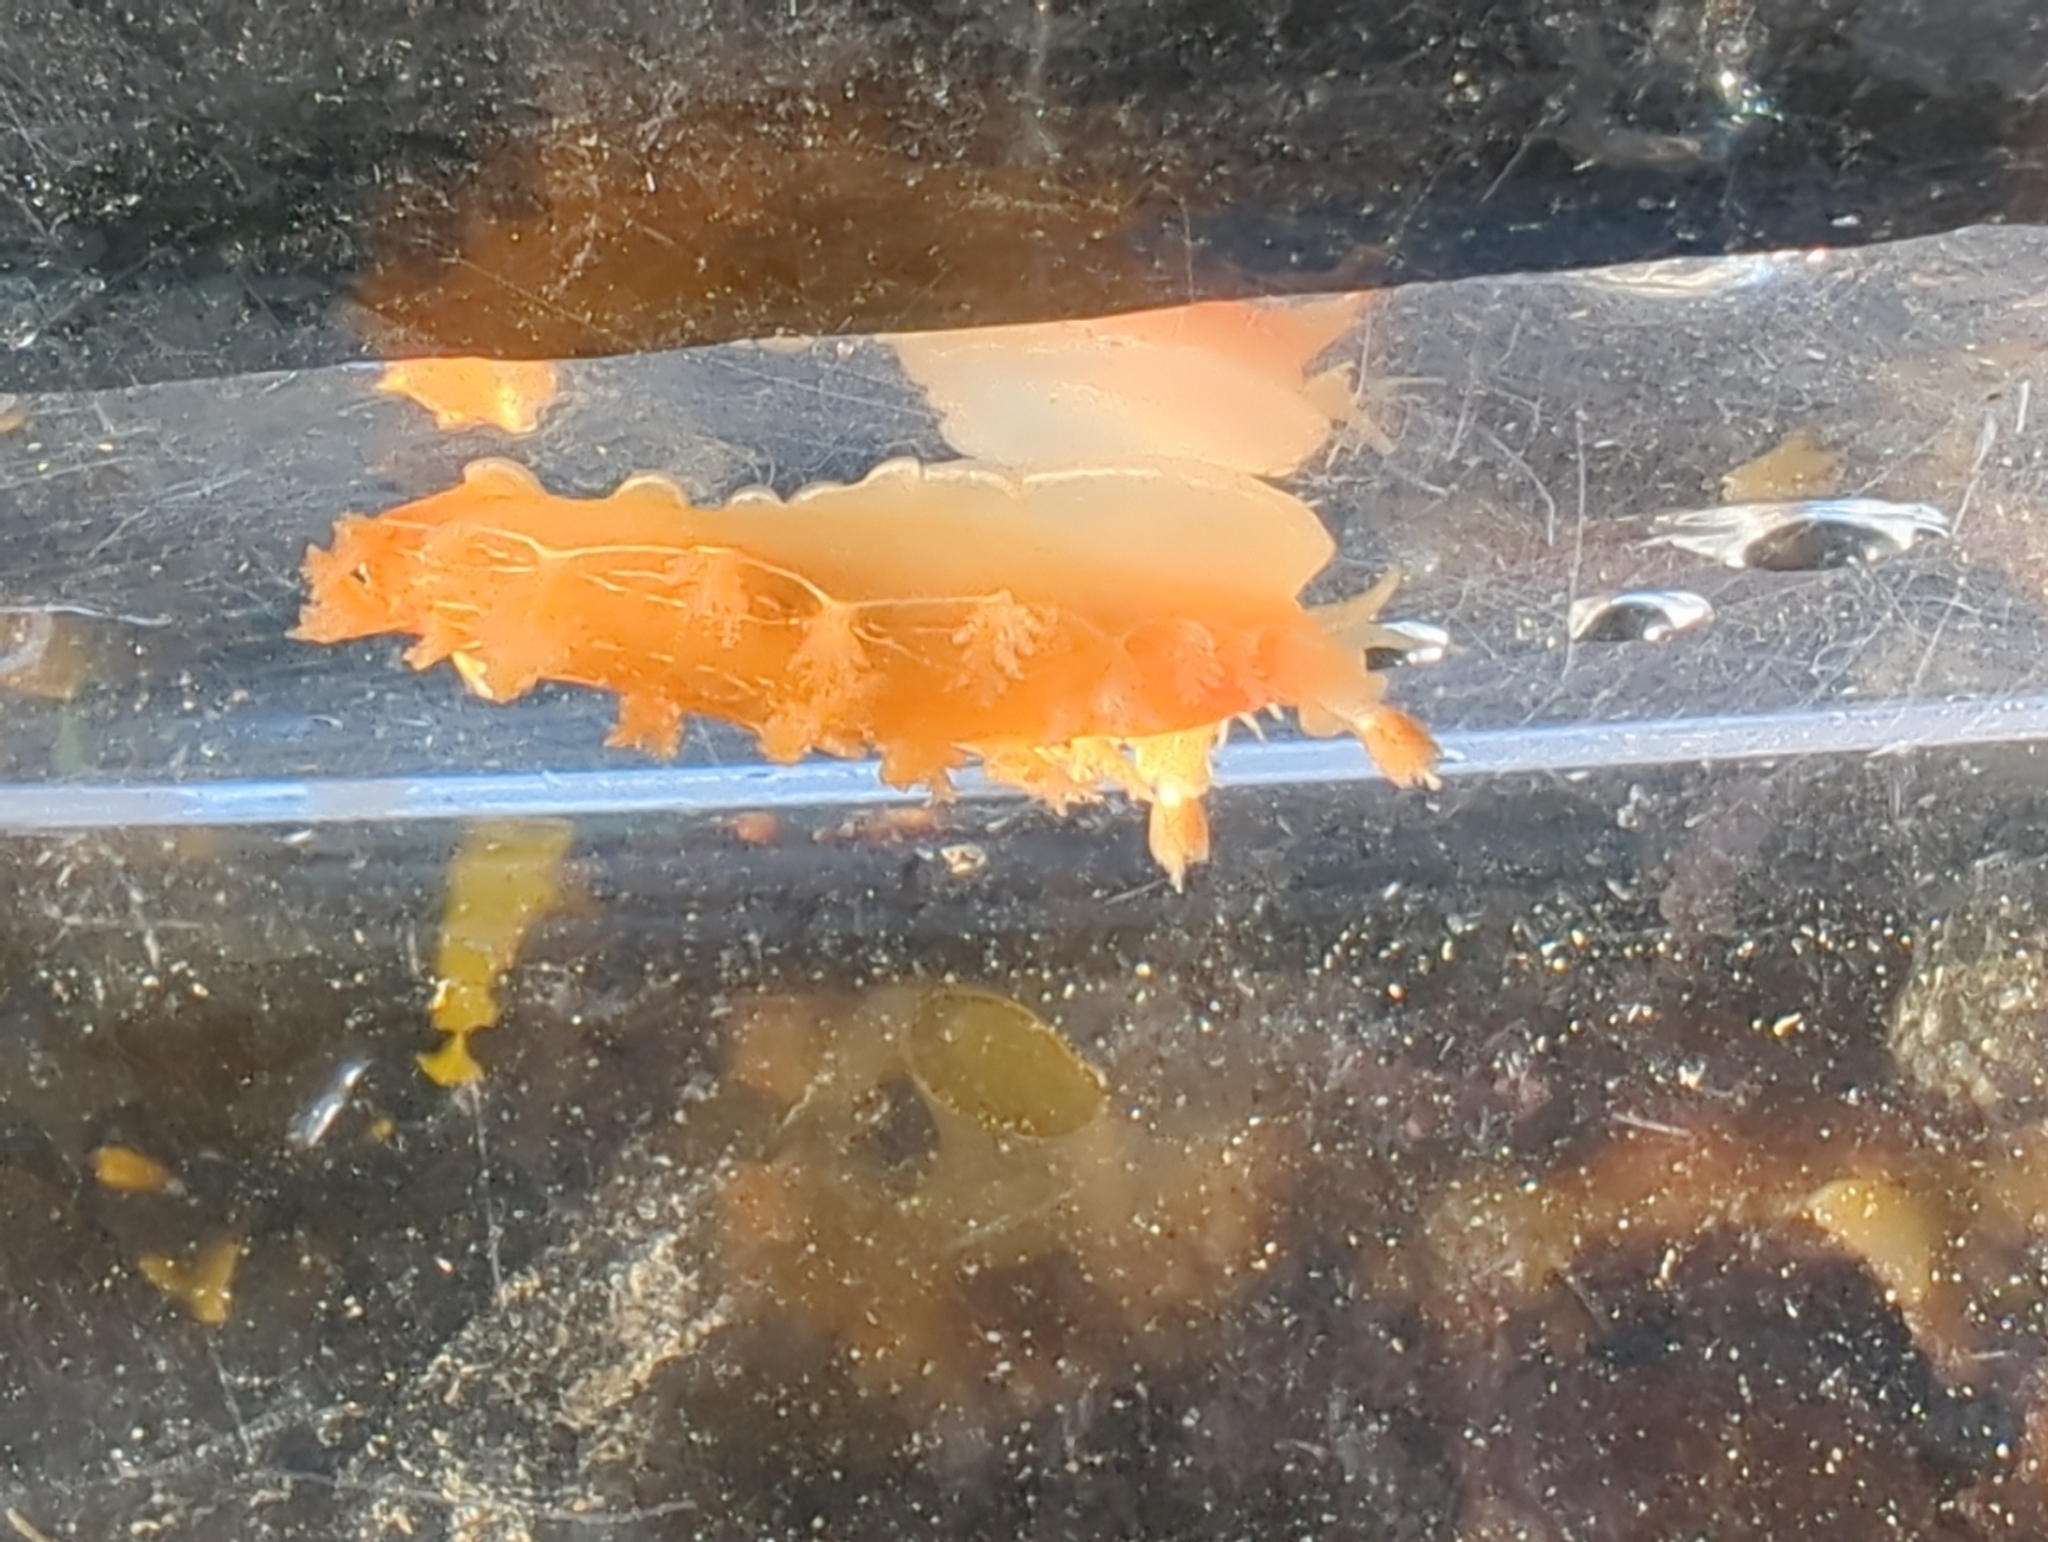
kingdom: Animalia
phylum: Mollusca
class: Gastropoda
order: Nudibranchia
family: Tritoniidae
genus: Tritonia
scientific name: Tritonia festiva
